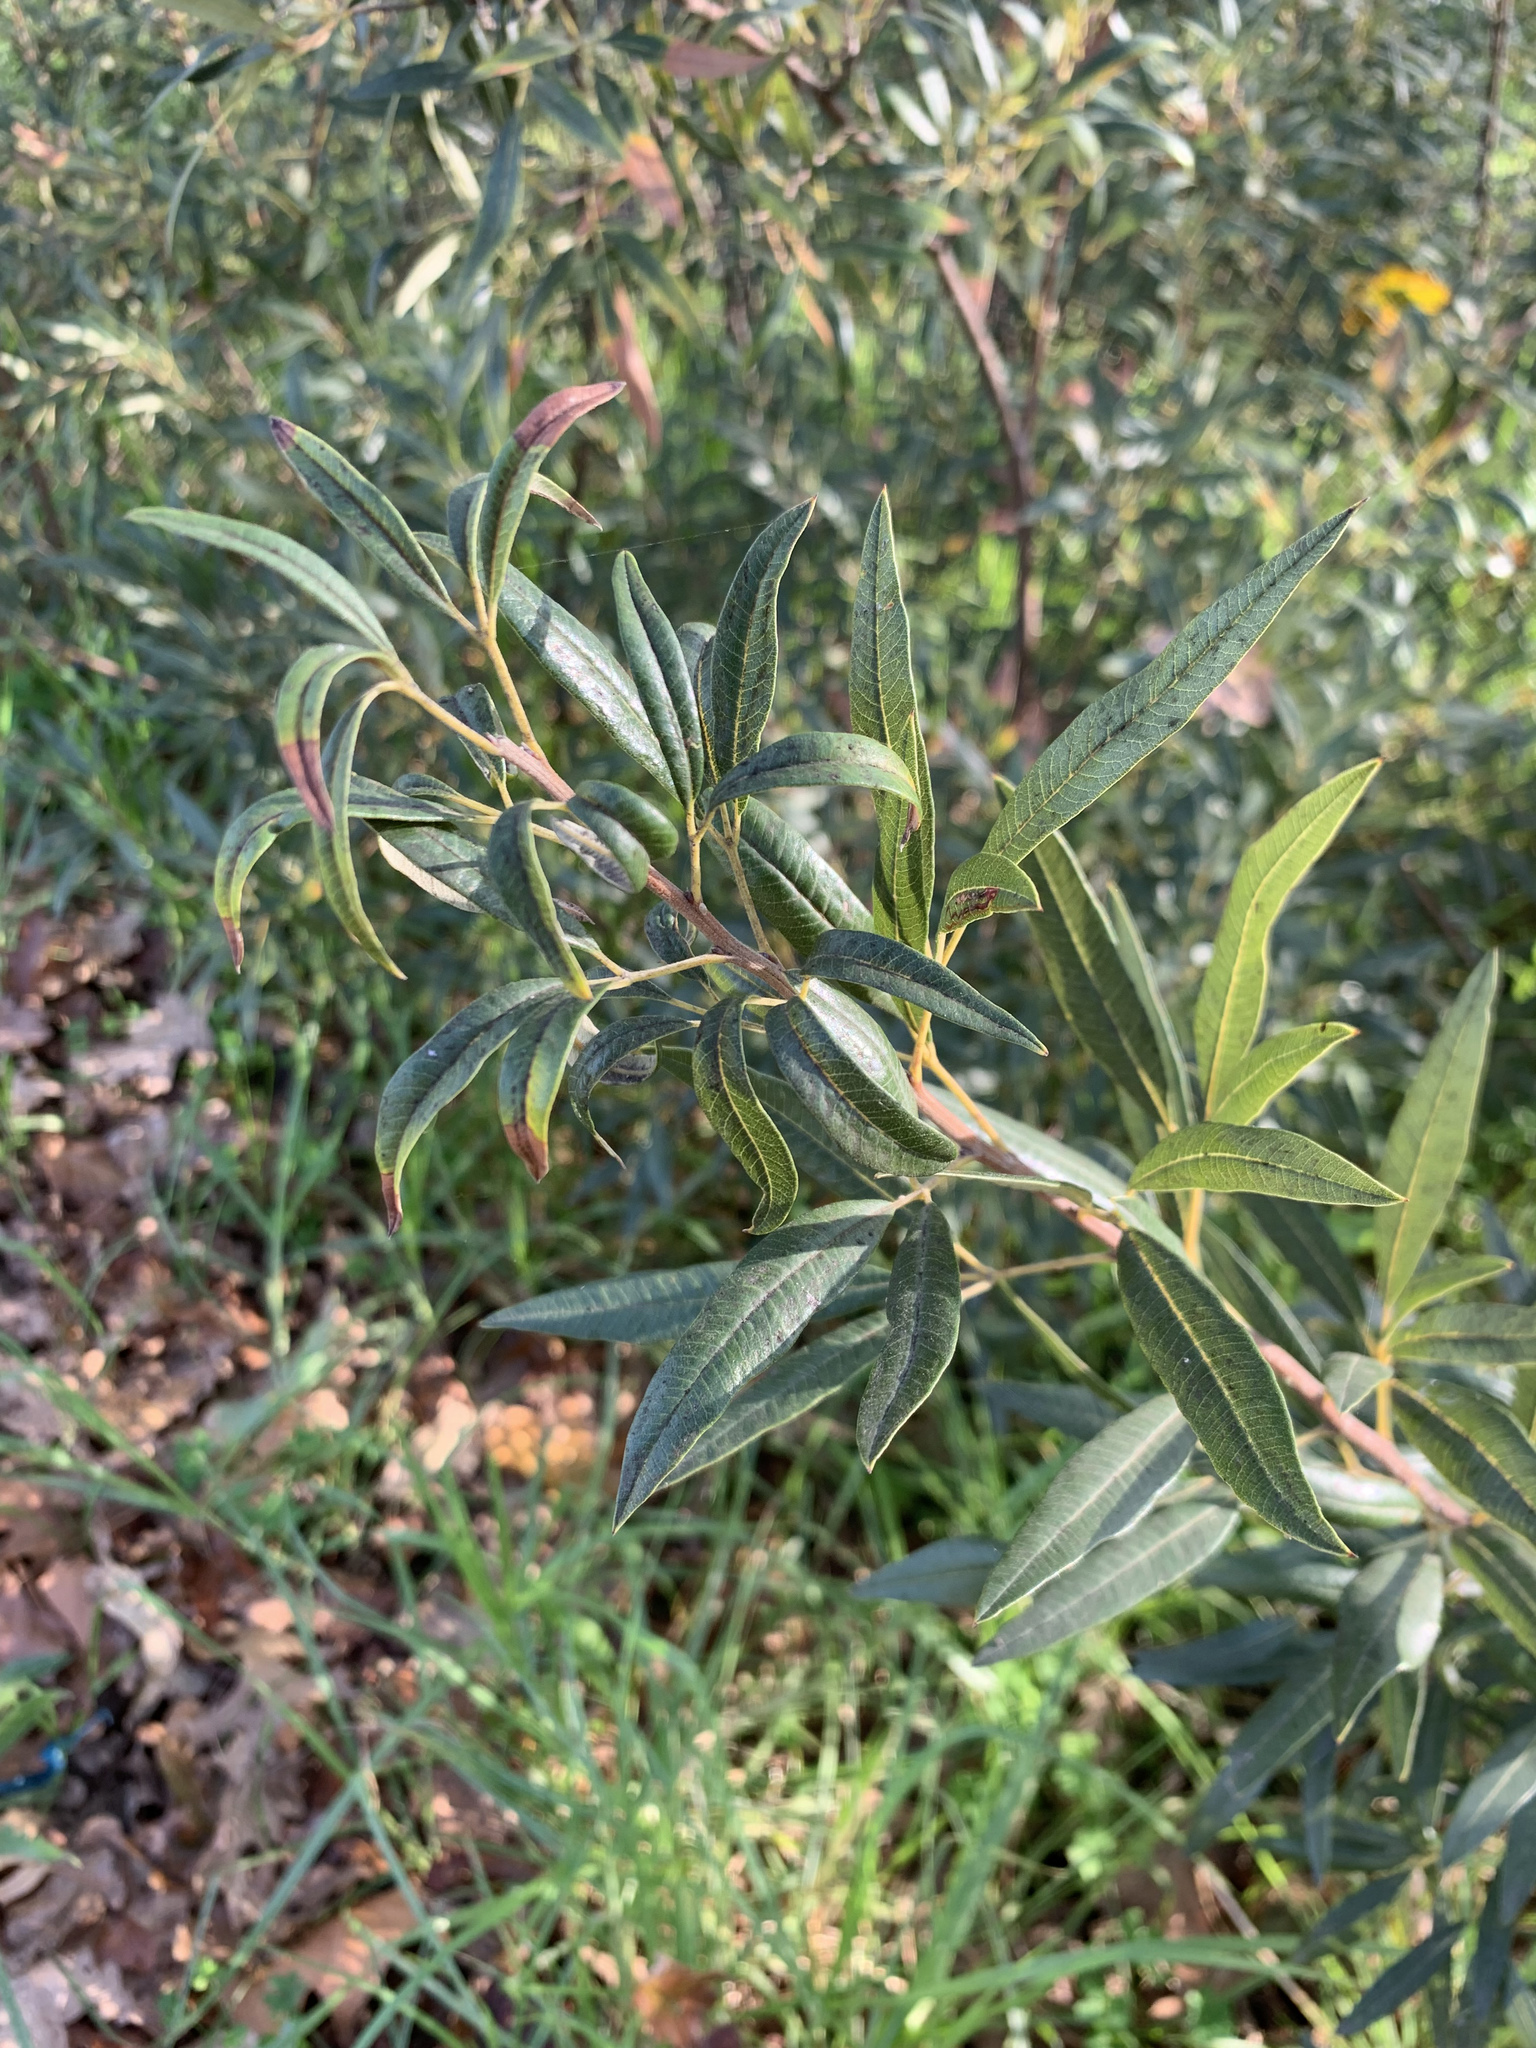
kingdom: Plantae
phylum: Tracheophyta
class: Magnoliopsida
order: Sapindales
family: Anacardiaceae
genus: Searsia
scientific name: Searsia angustifolia
